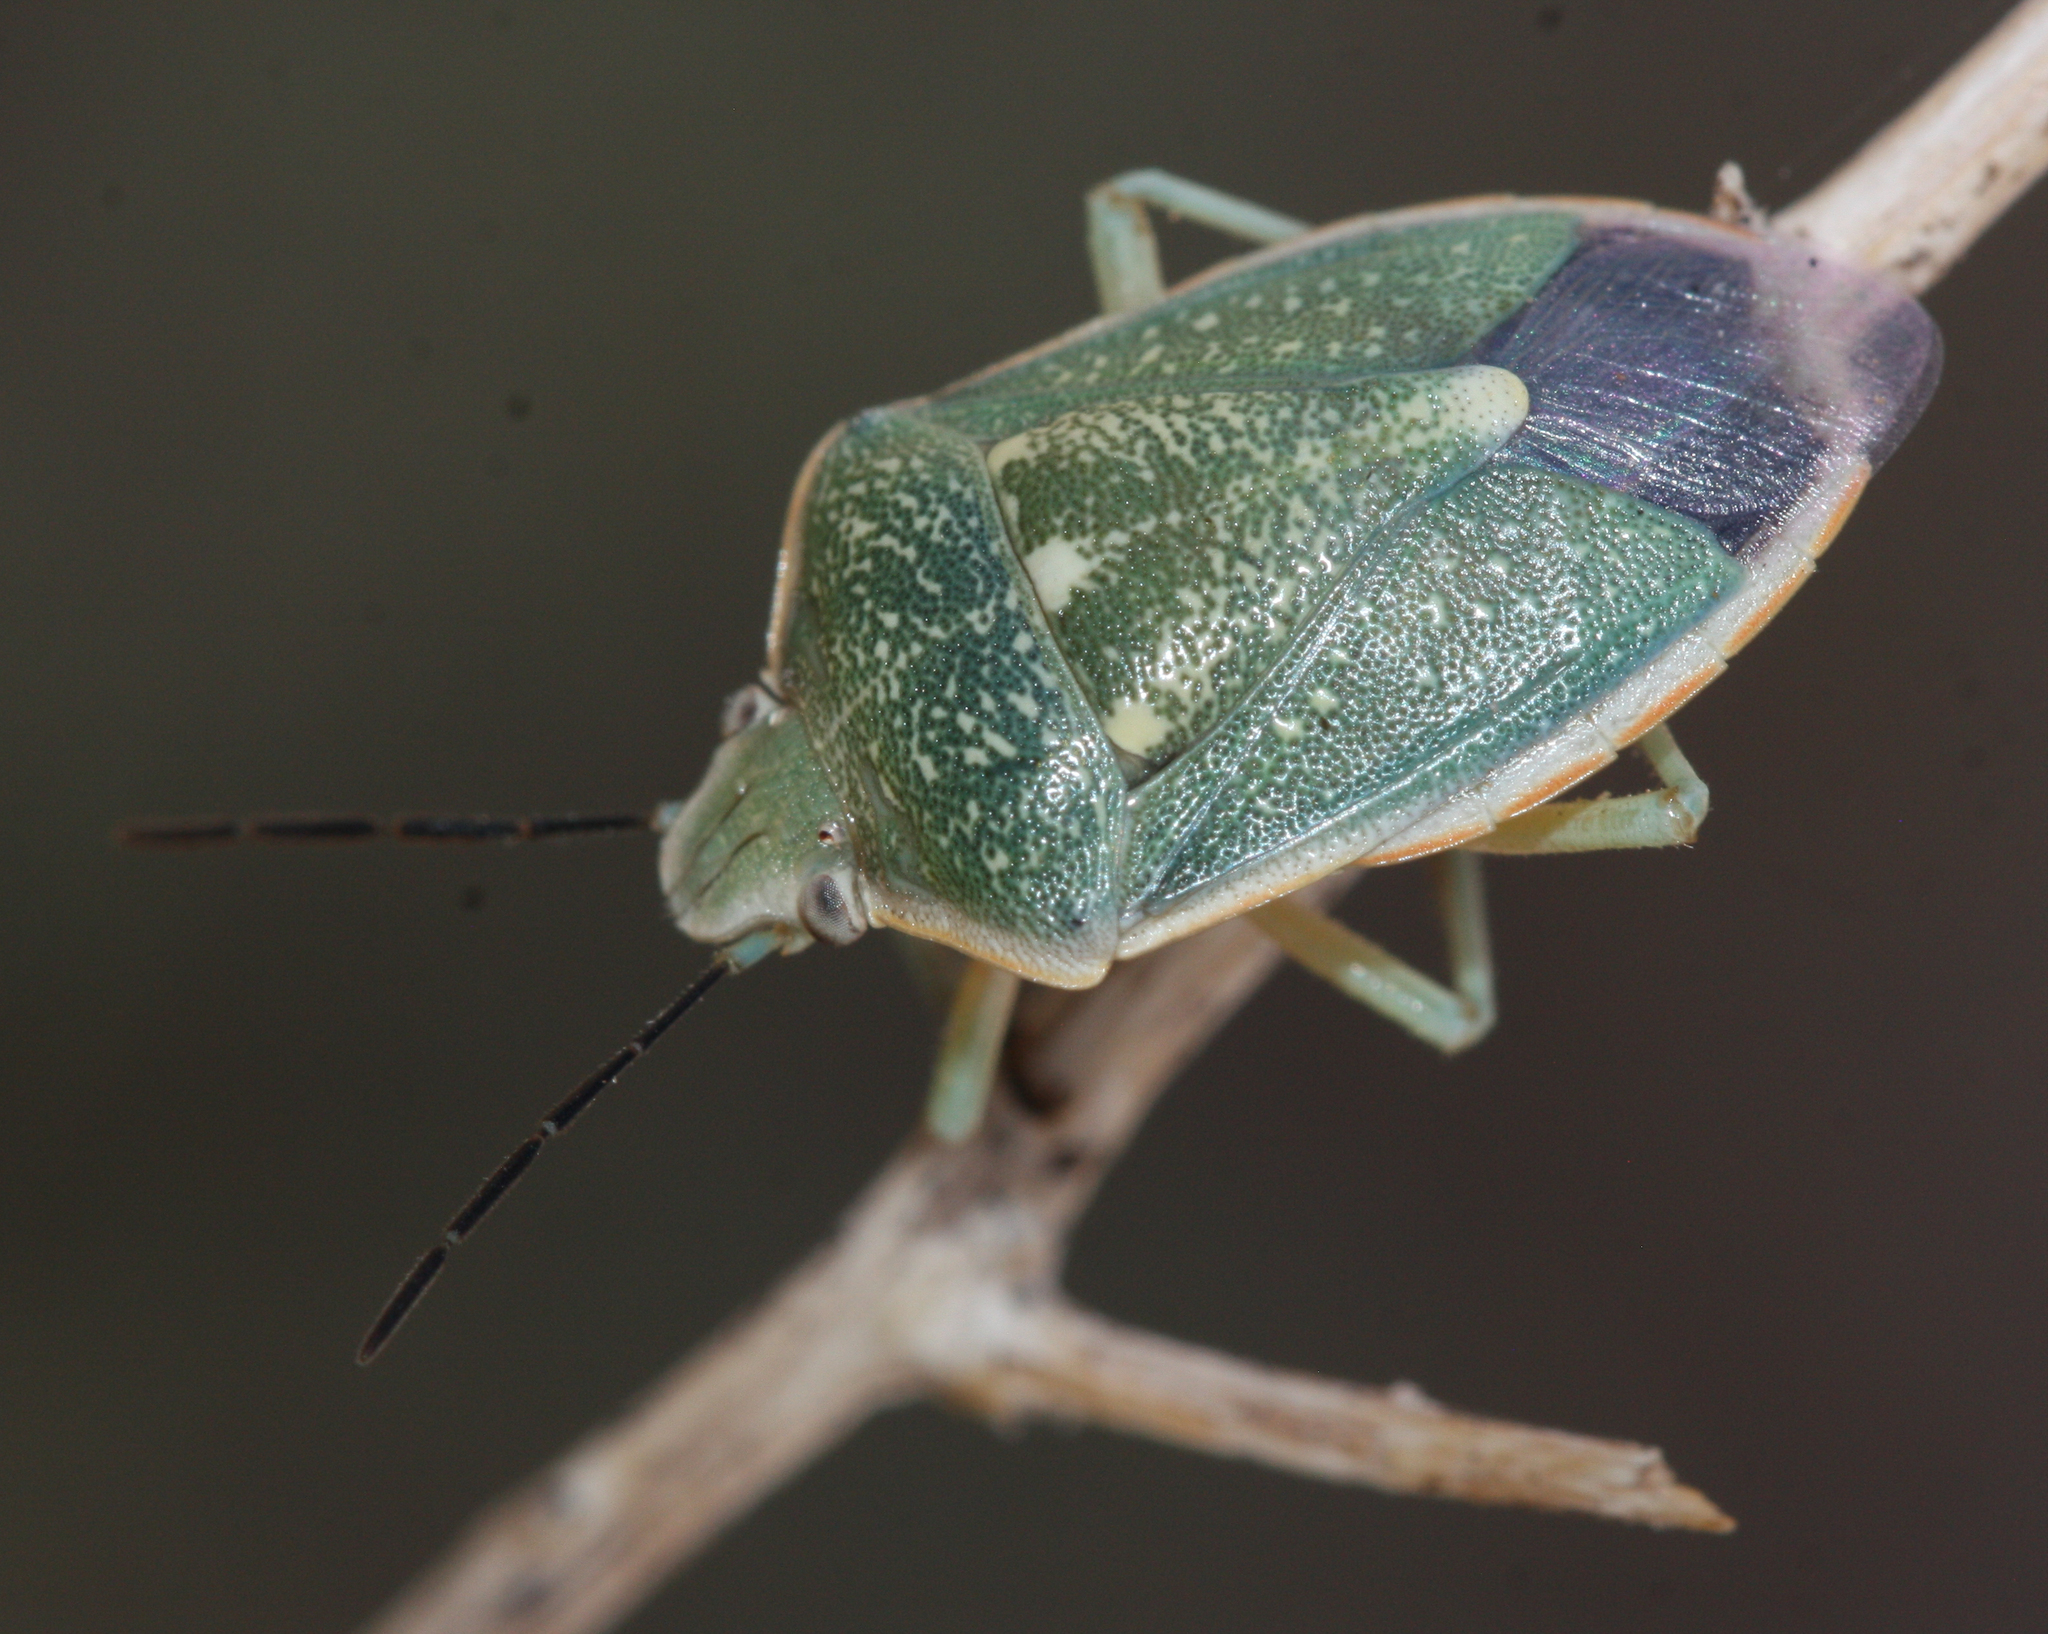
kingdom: Animalia
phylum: Arthropoda
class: Insecta
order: Hemiptera
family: Pentatomidae
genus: Chlorochroa
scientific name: Chlorochroa sayi
